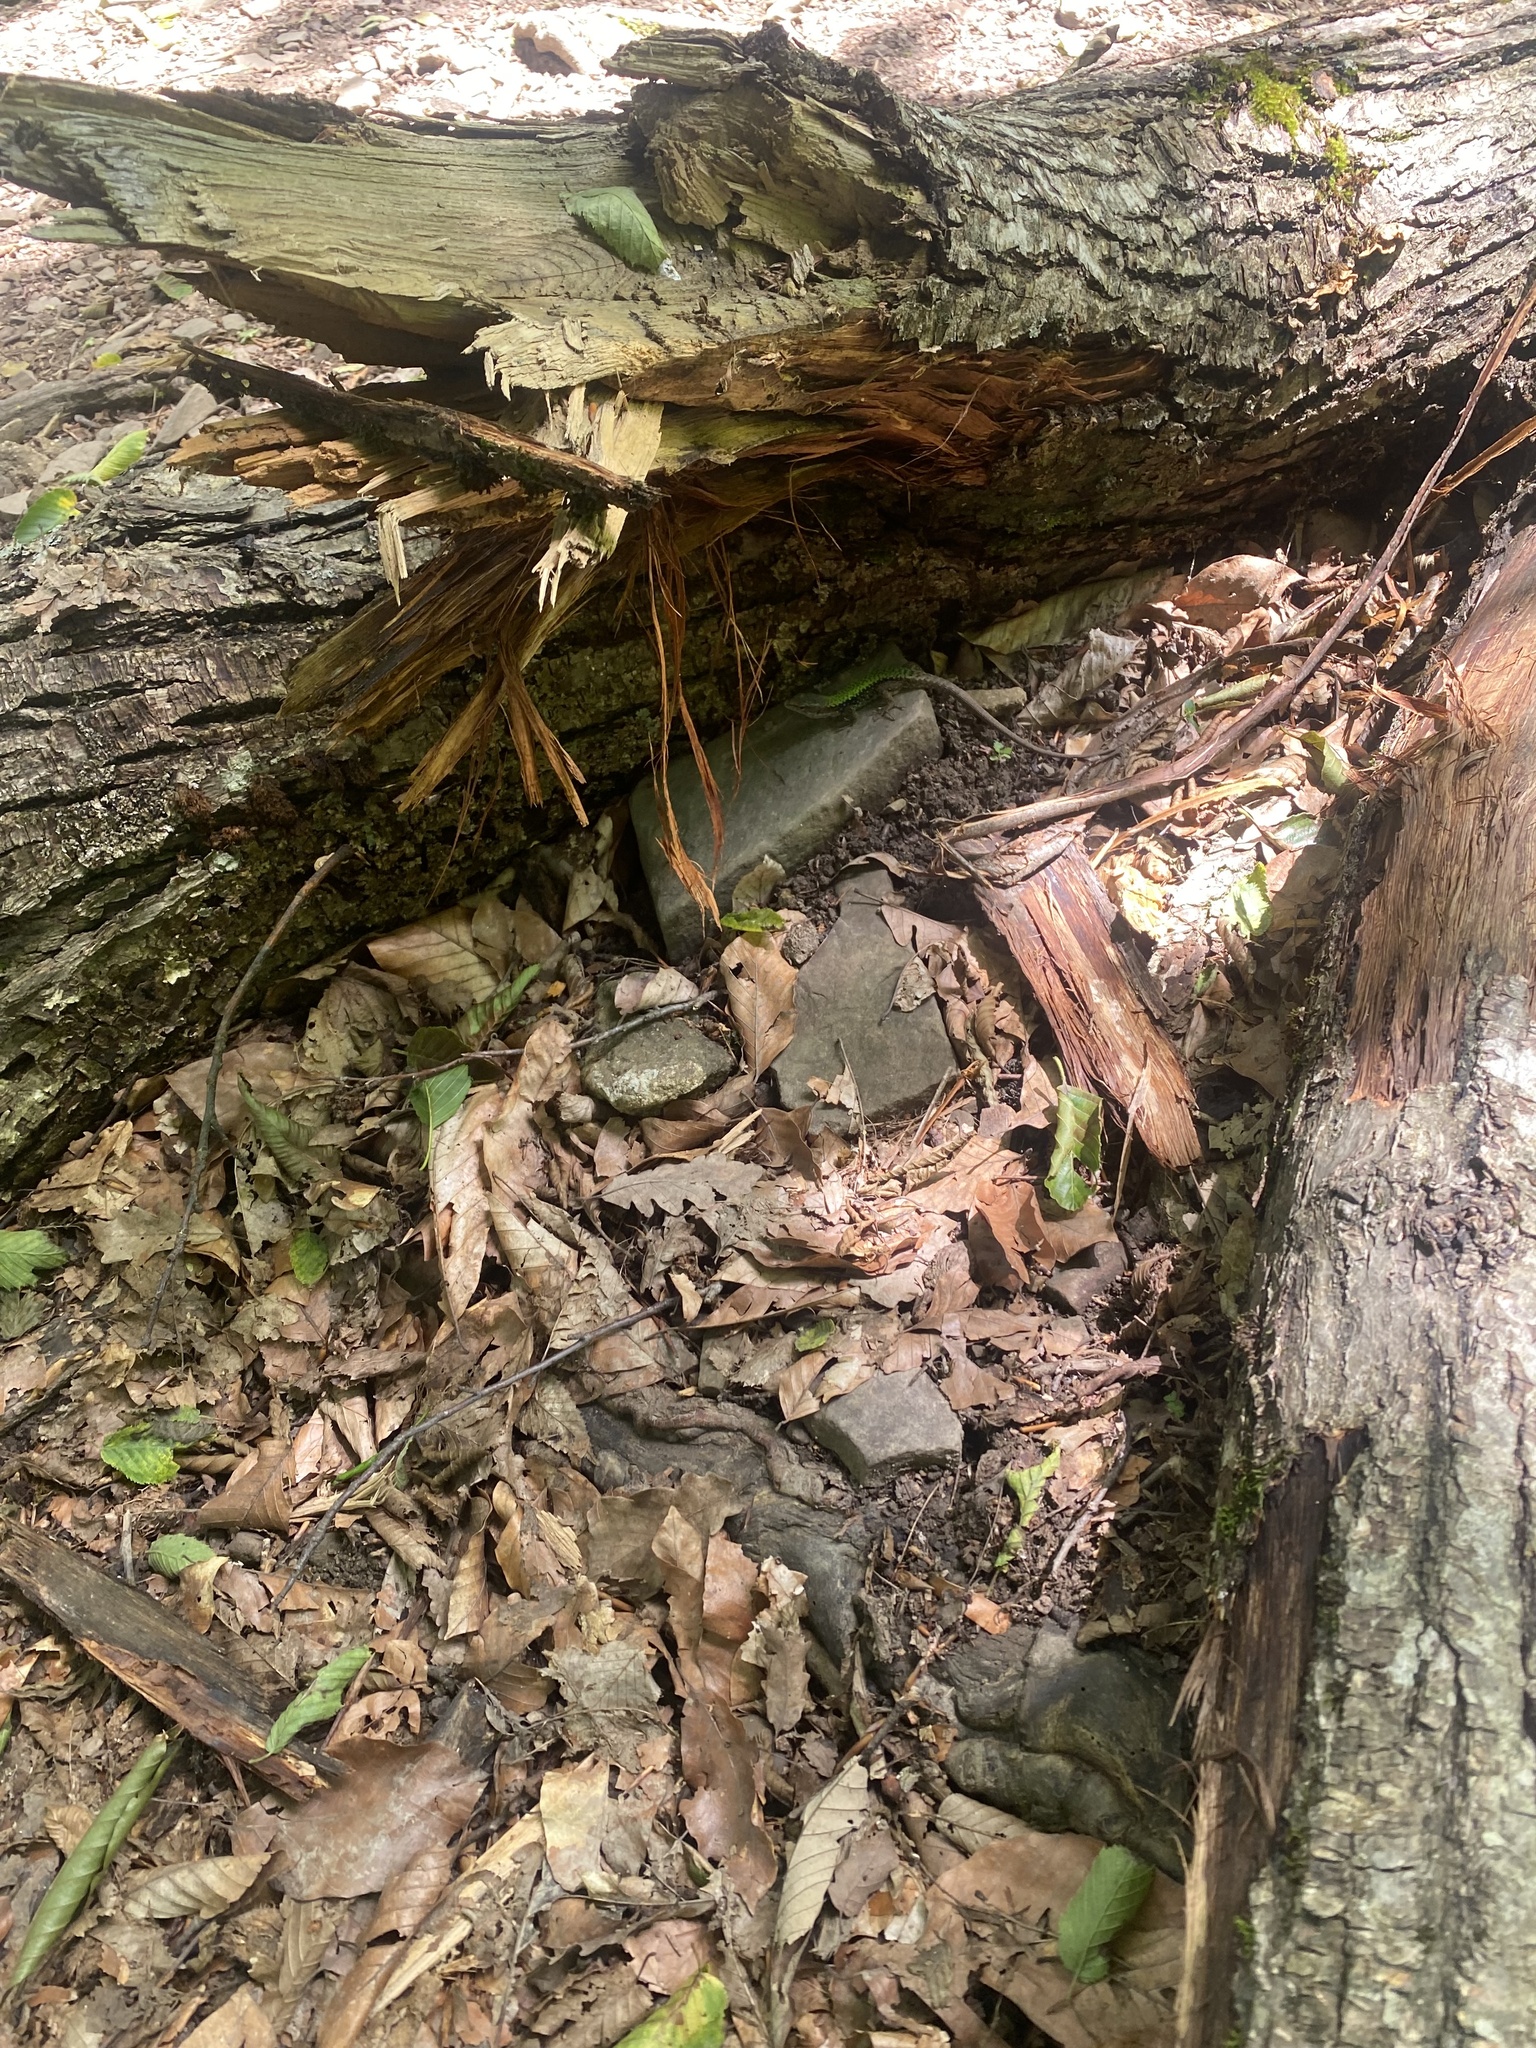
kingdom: Animalia
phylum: Chordata
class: Squamata
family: Lacertidae
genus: Darevskia
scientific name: Darevskia brauneri
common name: Brauner's rock lizard
